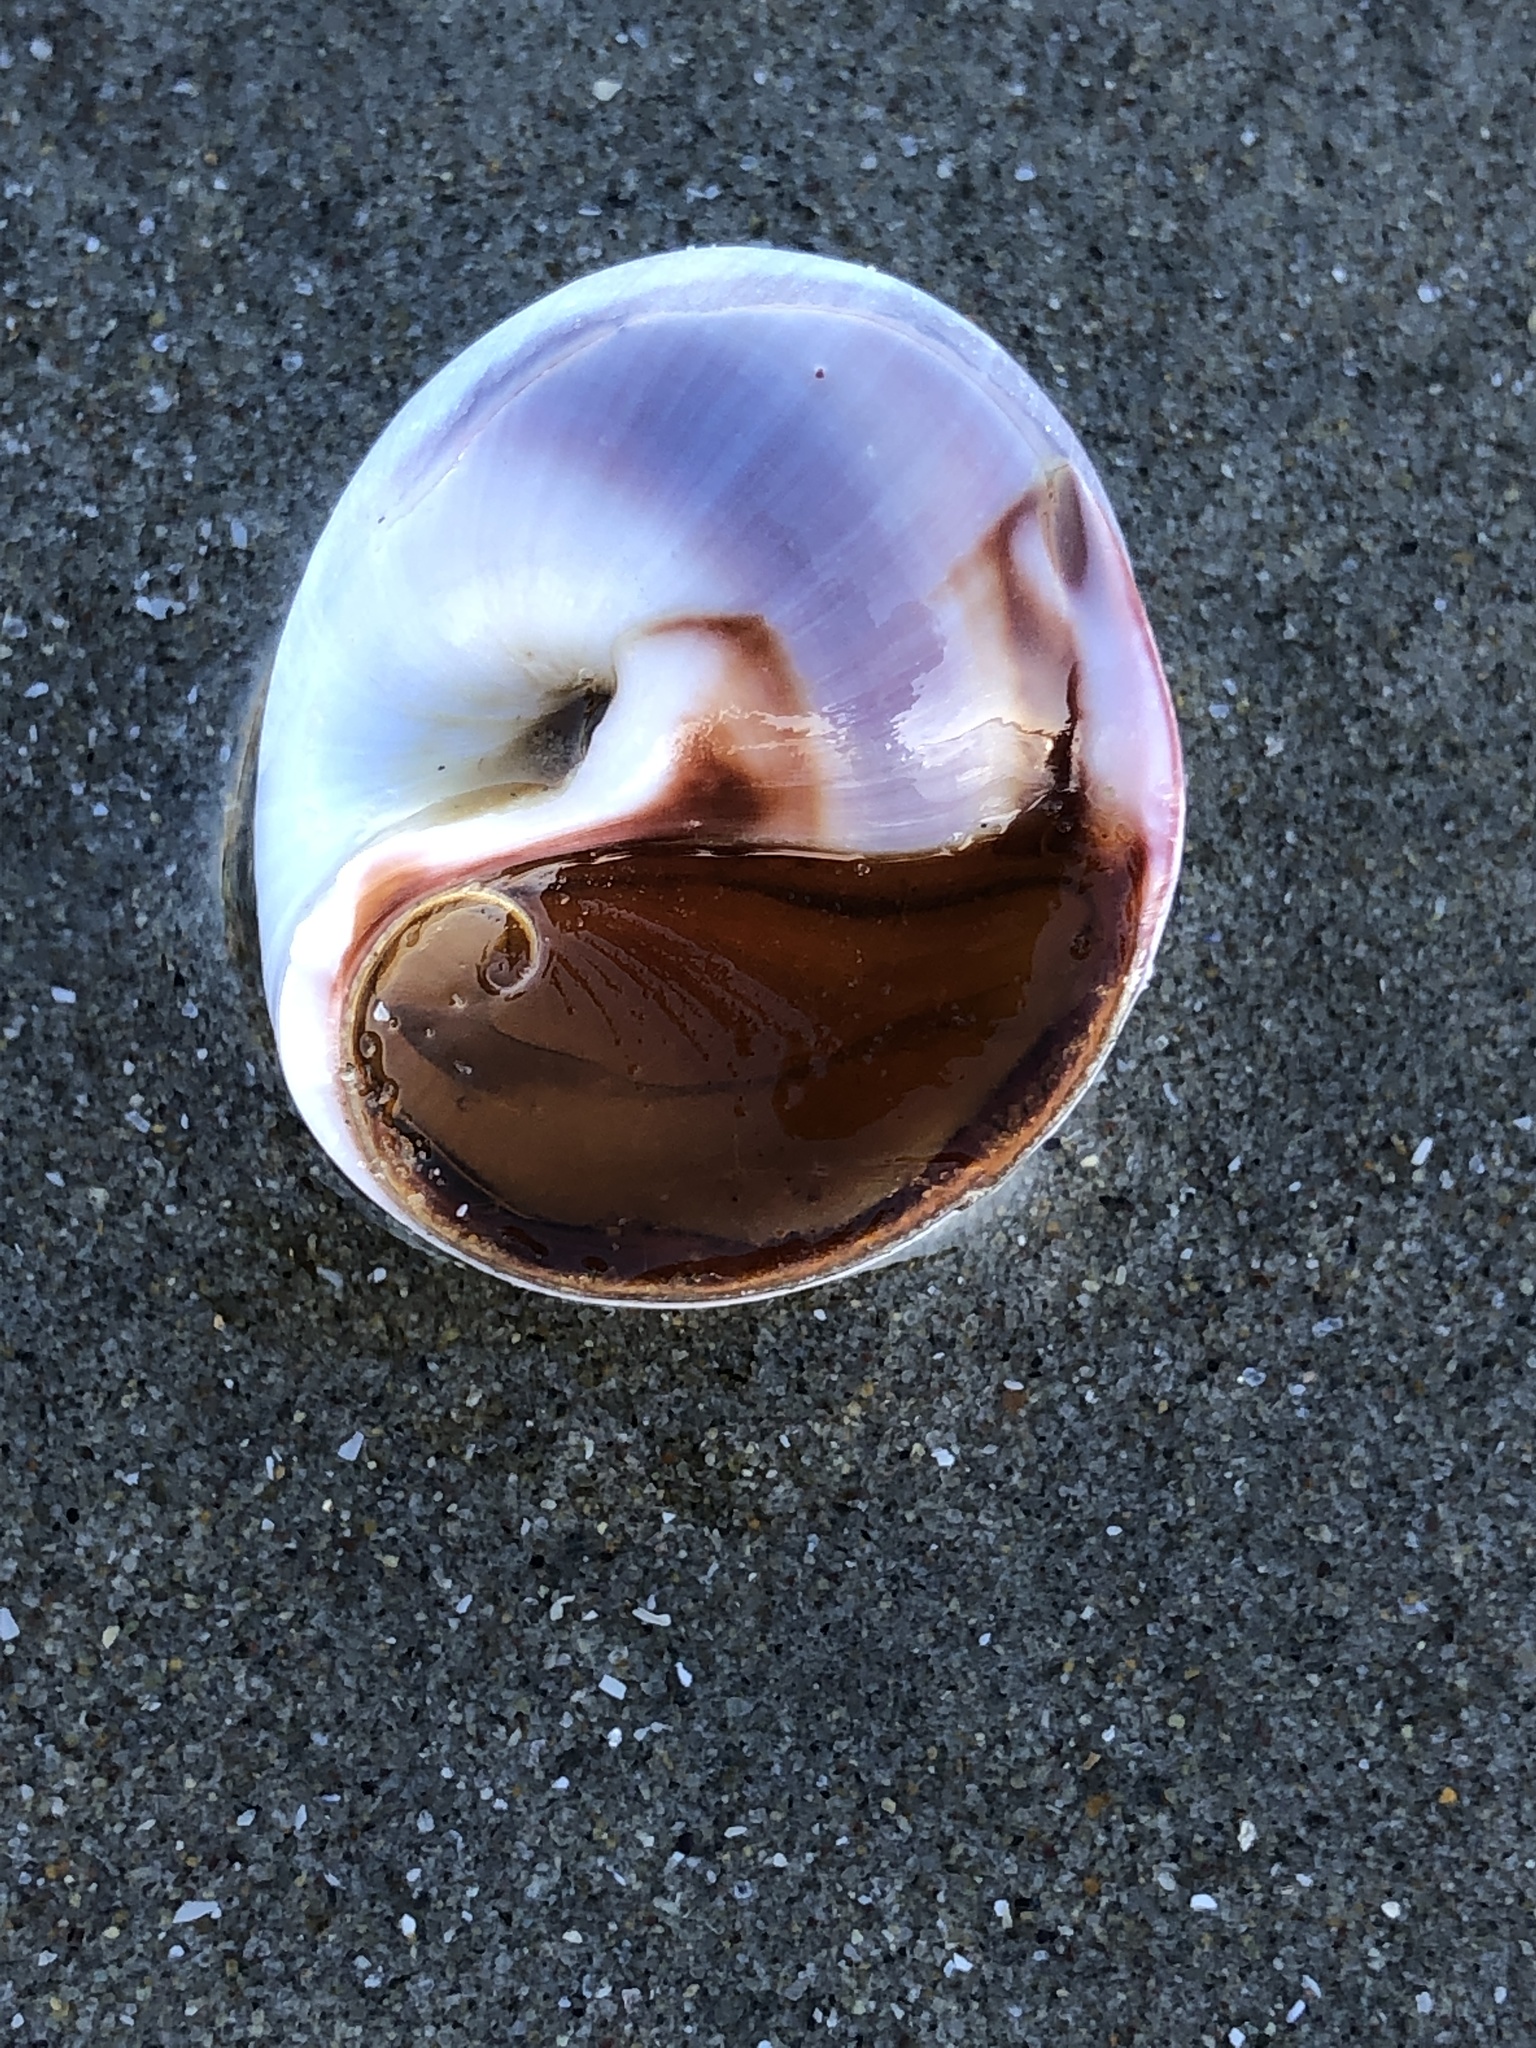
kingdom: Animalia
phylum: Mollusca
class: Gastropoda
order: Littorinimorpha
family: Naticidae
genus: Euspira
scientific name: Euspira heros
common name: Common northern moonsnail
